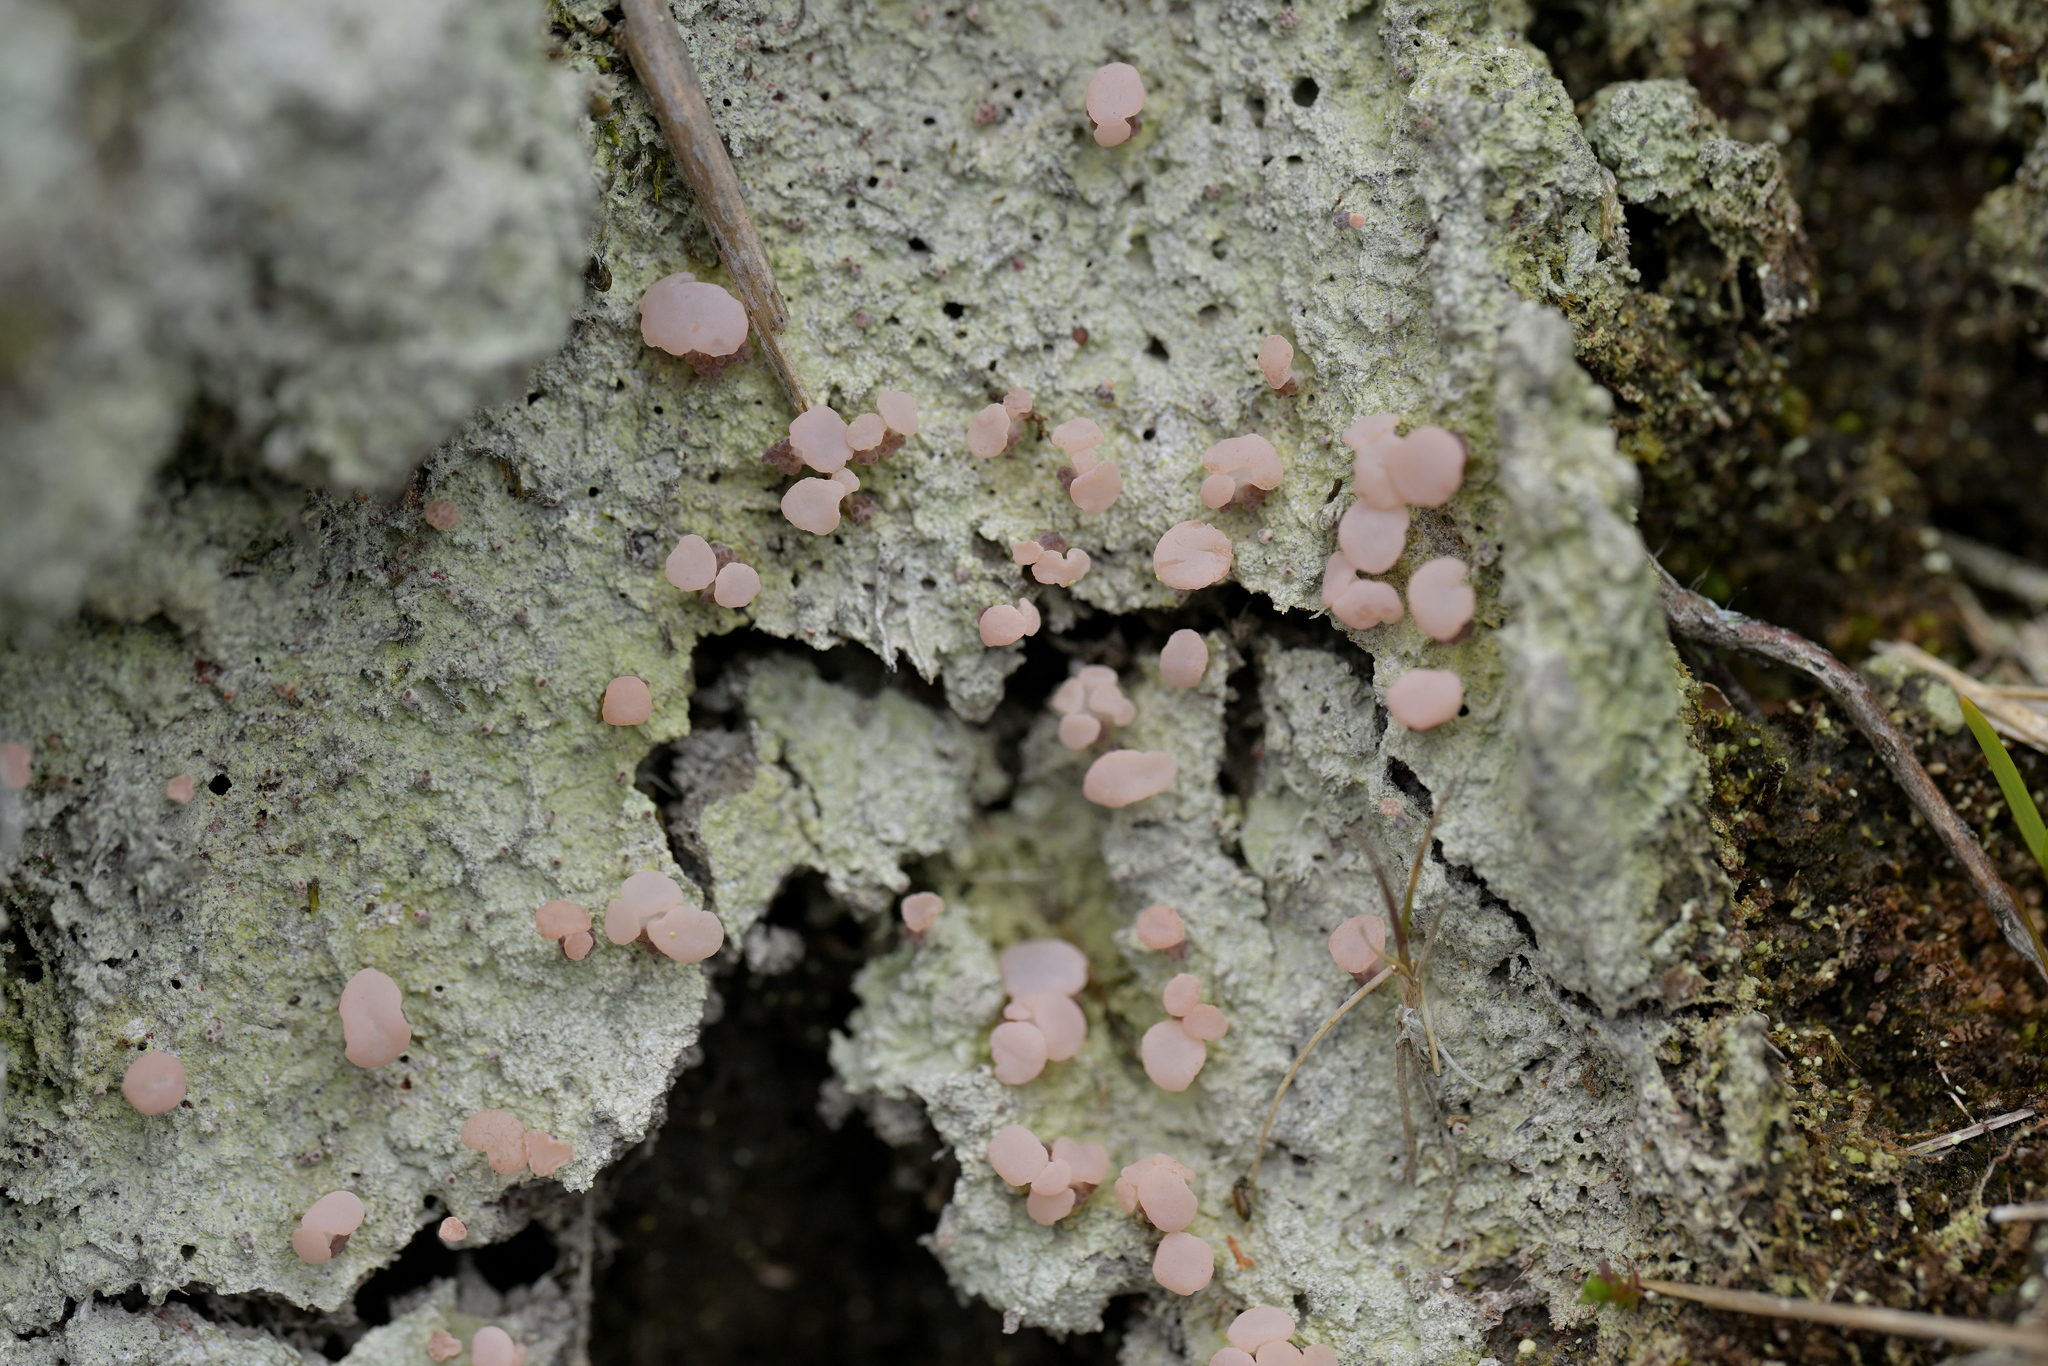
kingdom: Fungi
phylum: Ascomycota
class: Lecanoromycetes
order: Baeomycetales
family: Baeomycetaceae
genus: Baeomyces
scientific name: Baeomyces heteromorphus
